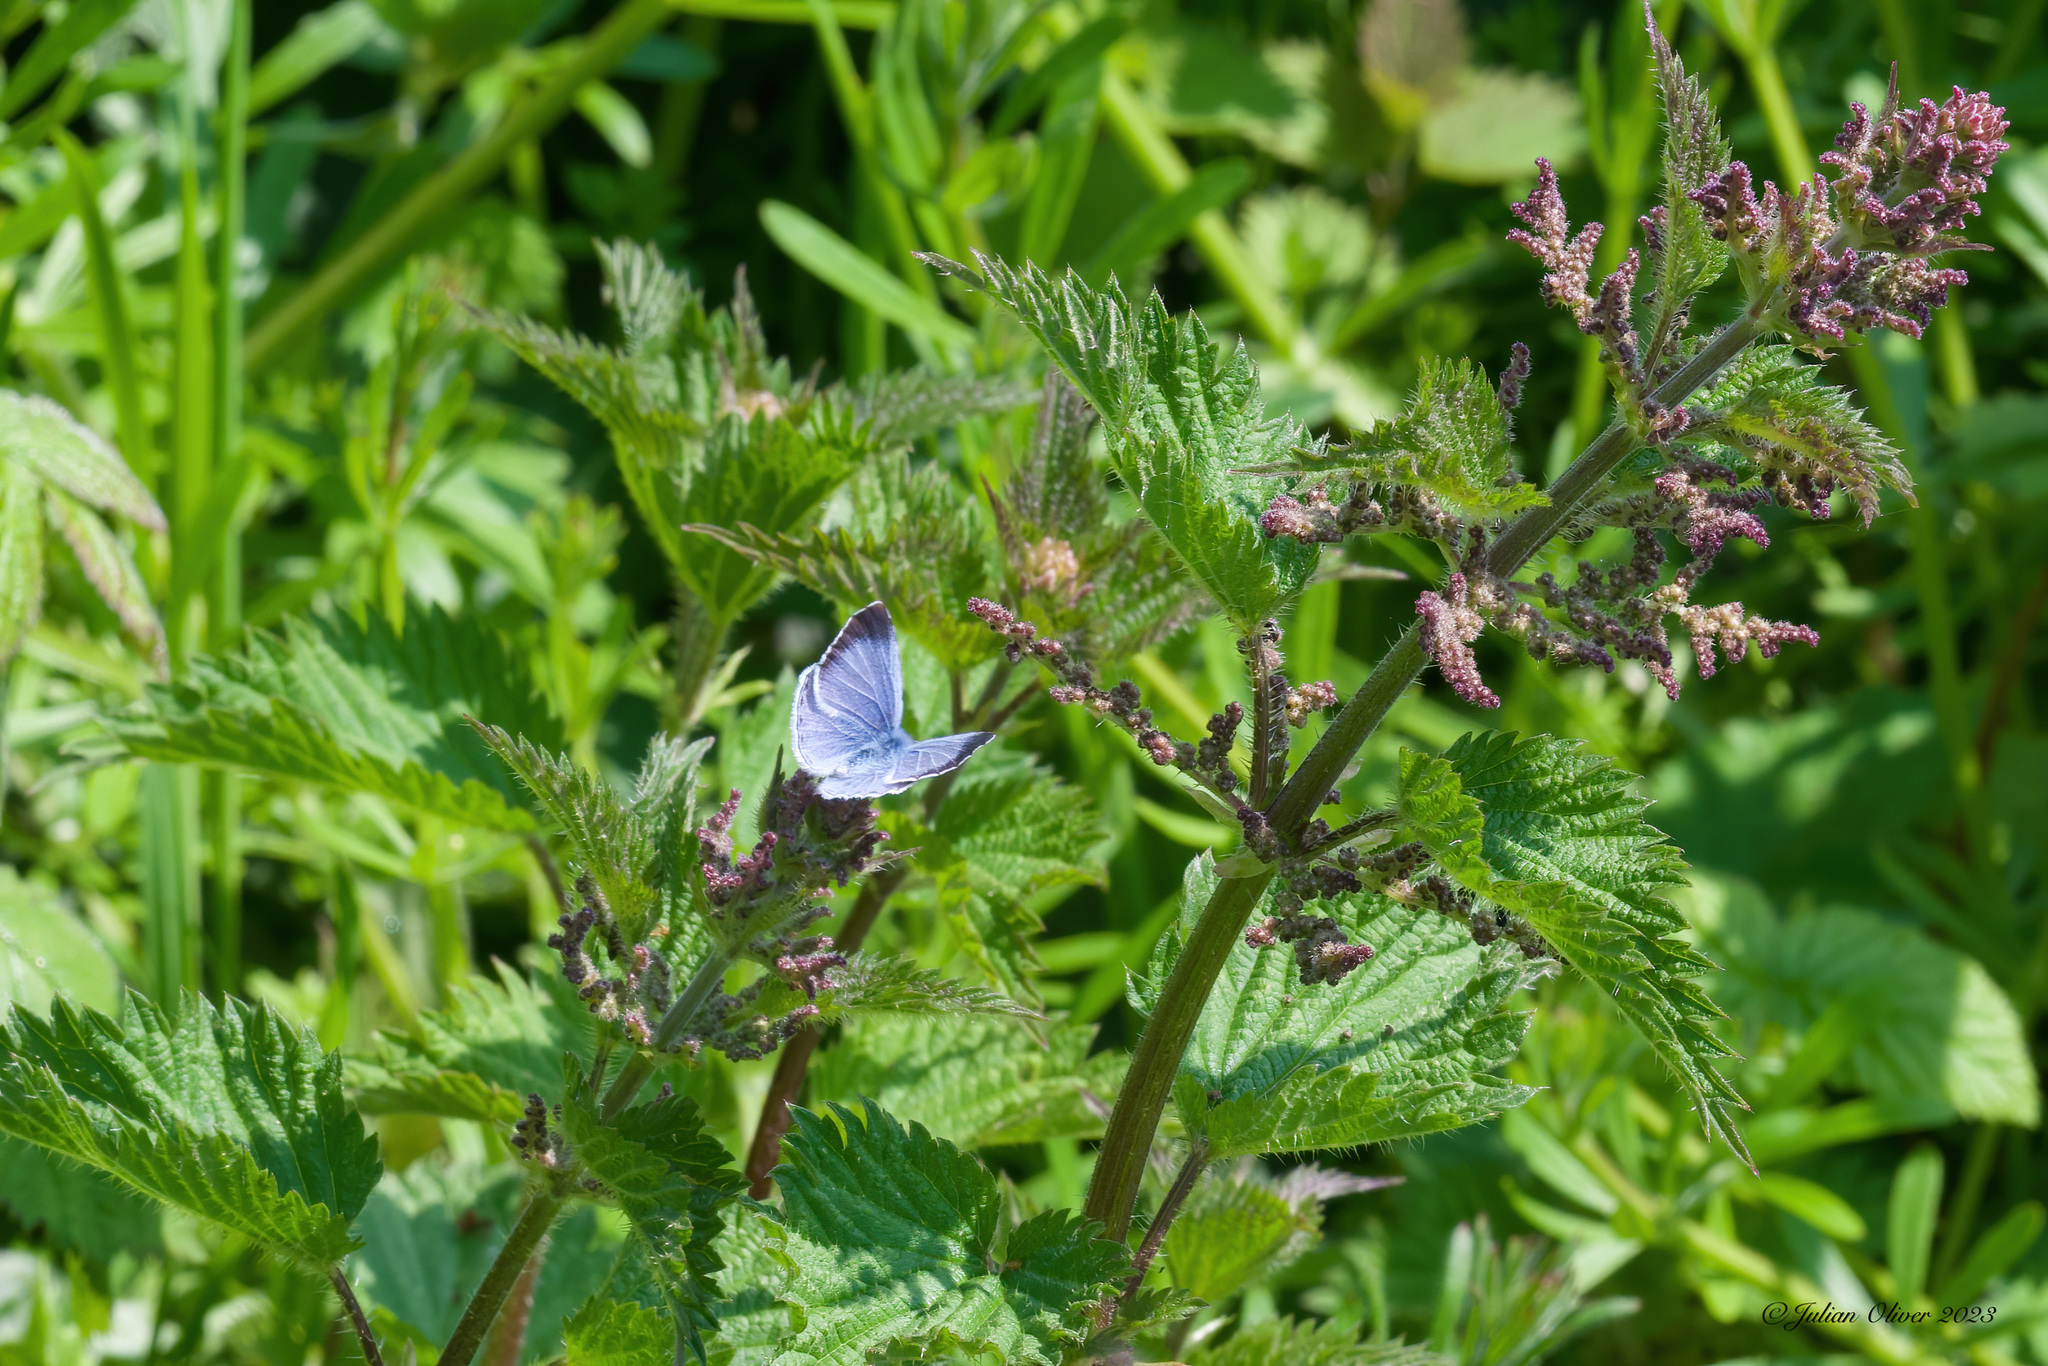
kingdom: Animalia
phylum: Arthropoda
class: Insecta
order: Lepidoptera
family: Lycaenidae
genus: Celastrina
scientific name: Celastrina argiolus
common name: Holly blue
